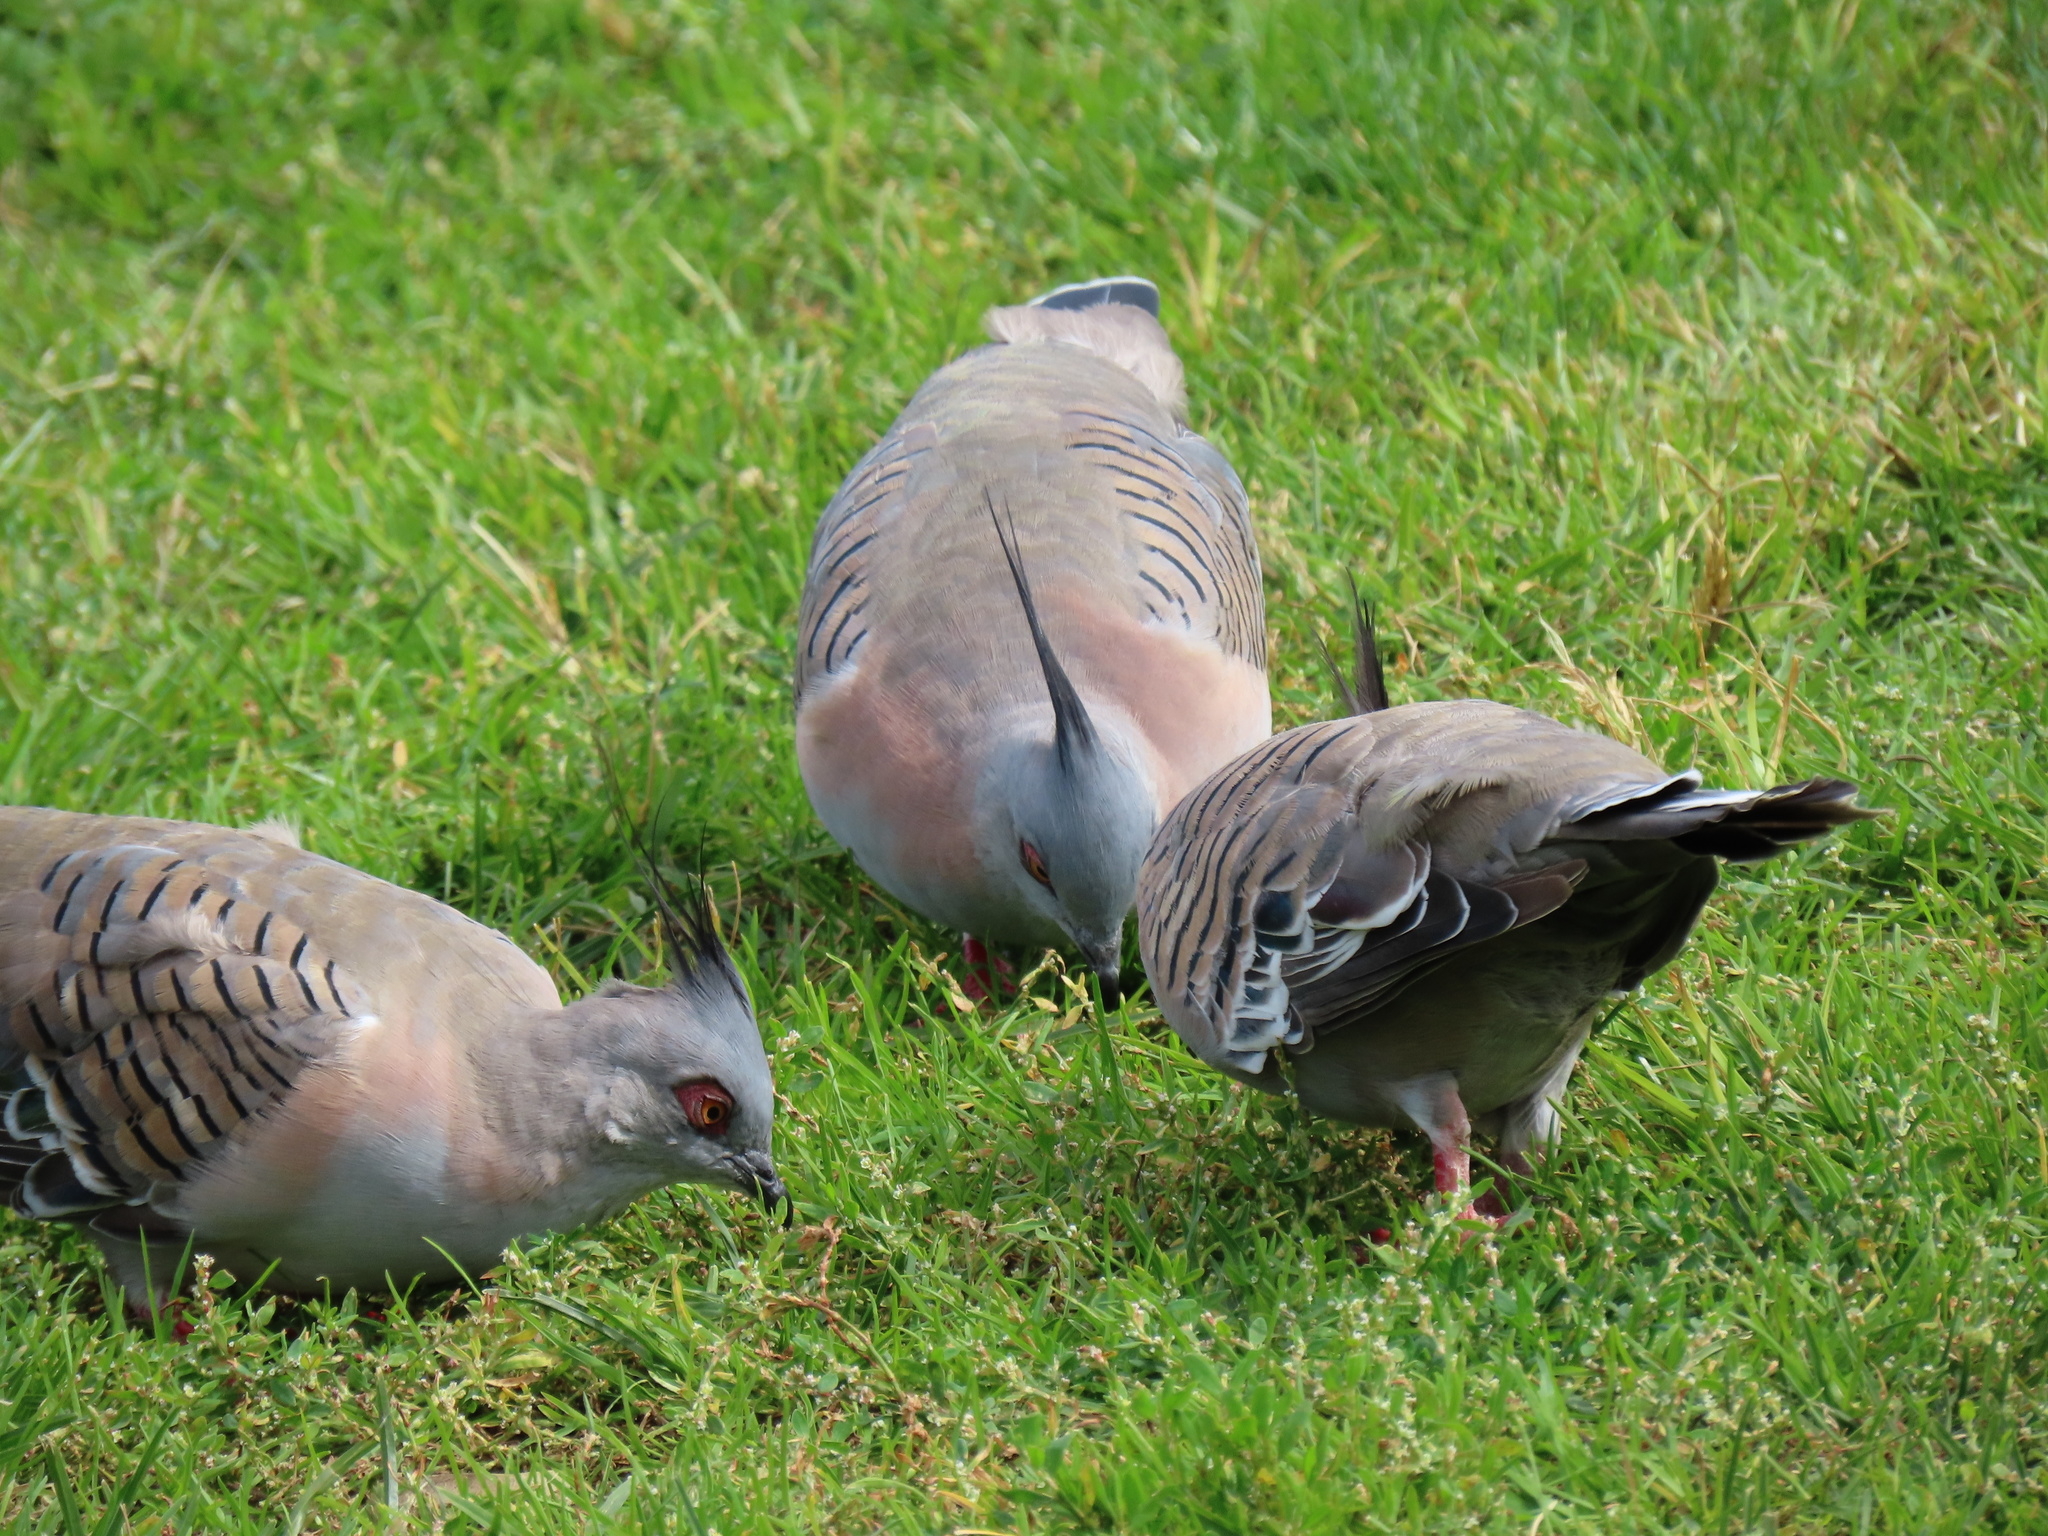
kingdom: Animalia
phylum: Chordata
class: Aves
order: Columbiformes
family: Columbidae
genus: Ocyphaps
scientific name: Ocyphaps lophotes
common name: Crested pigeon
